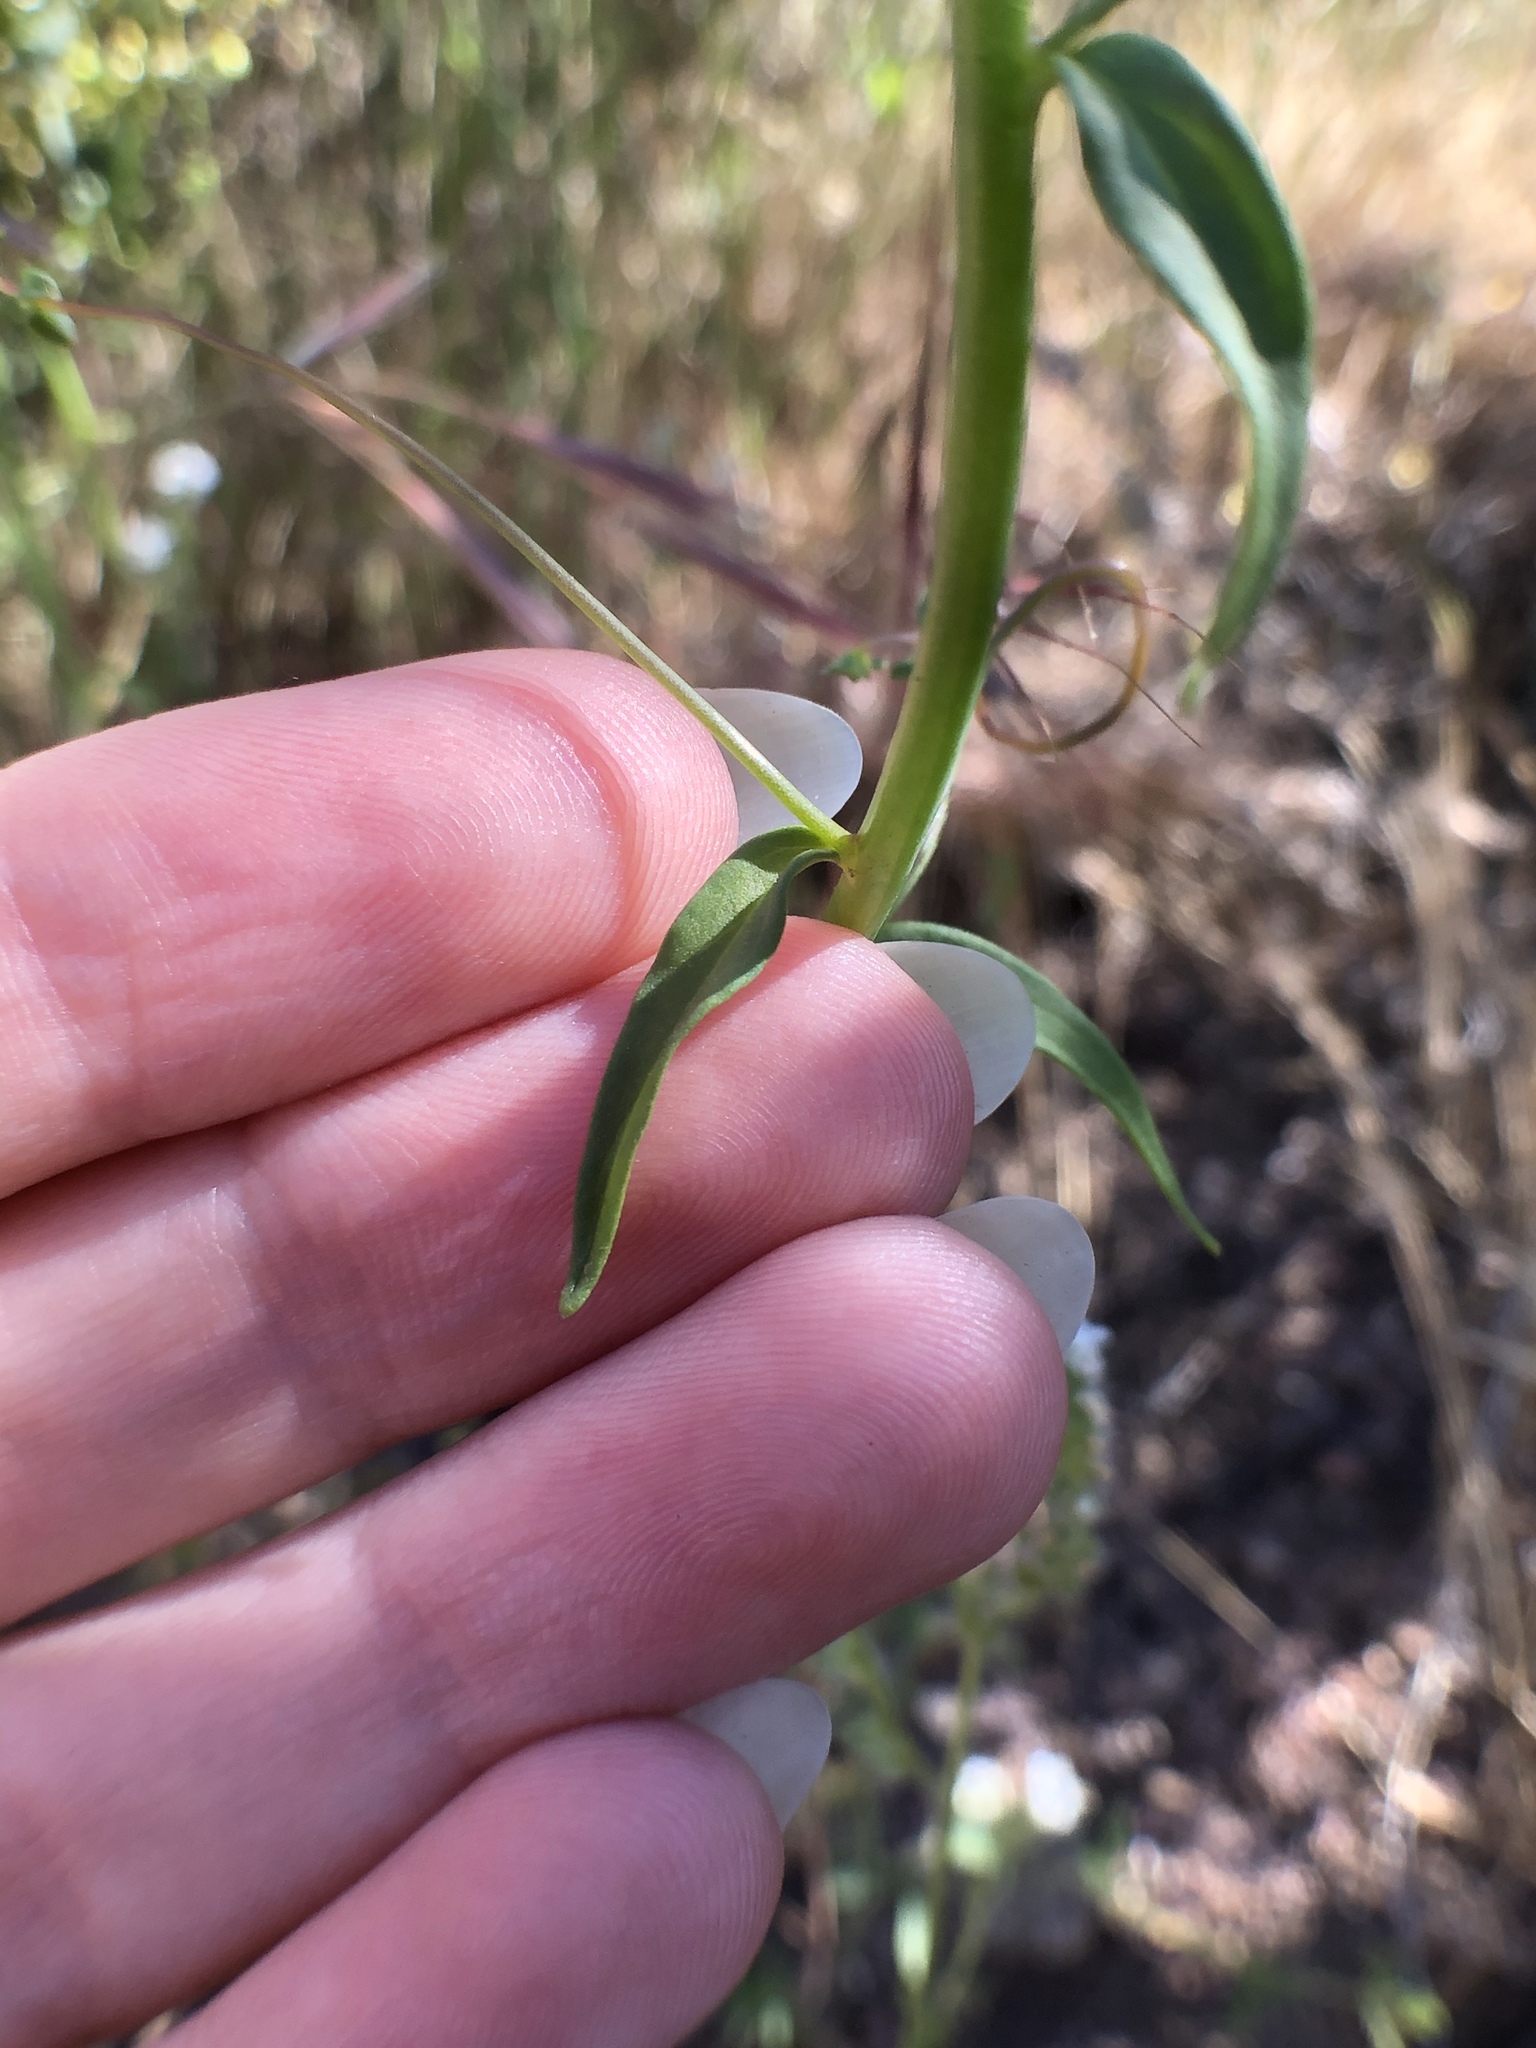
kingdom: Plantae
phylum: Tracheophyta
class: Magnoliopsida
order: Lamiales
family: Plantaginaceae
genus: Sairocarpus
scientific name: Sairocarpus coulterianus
